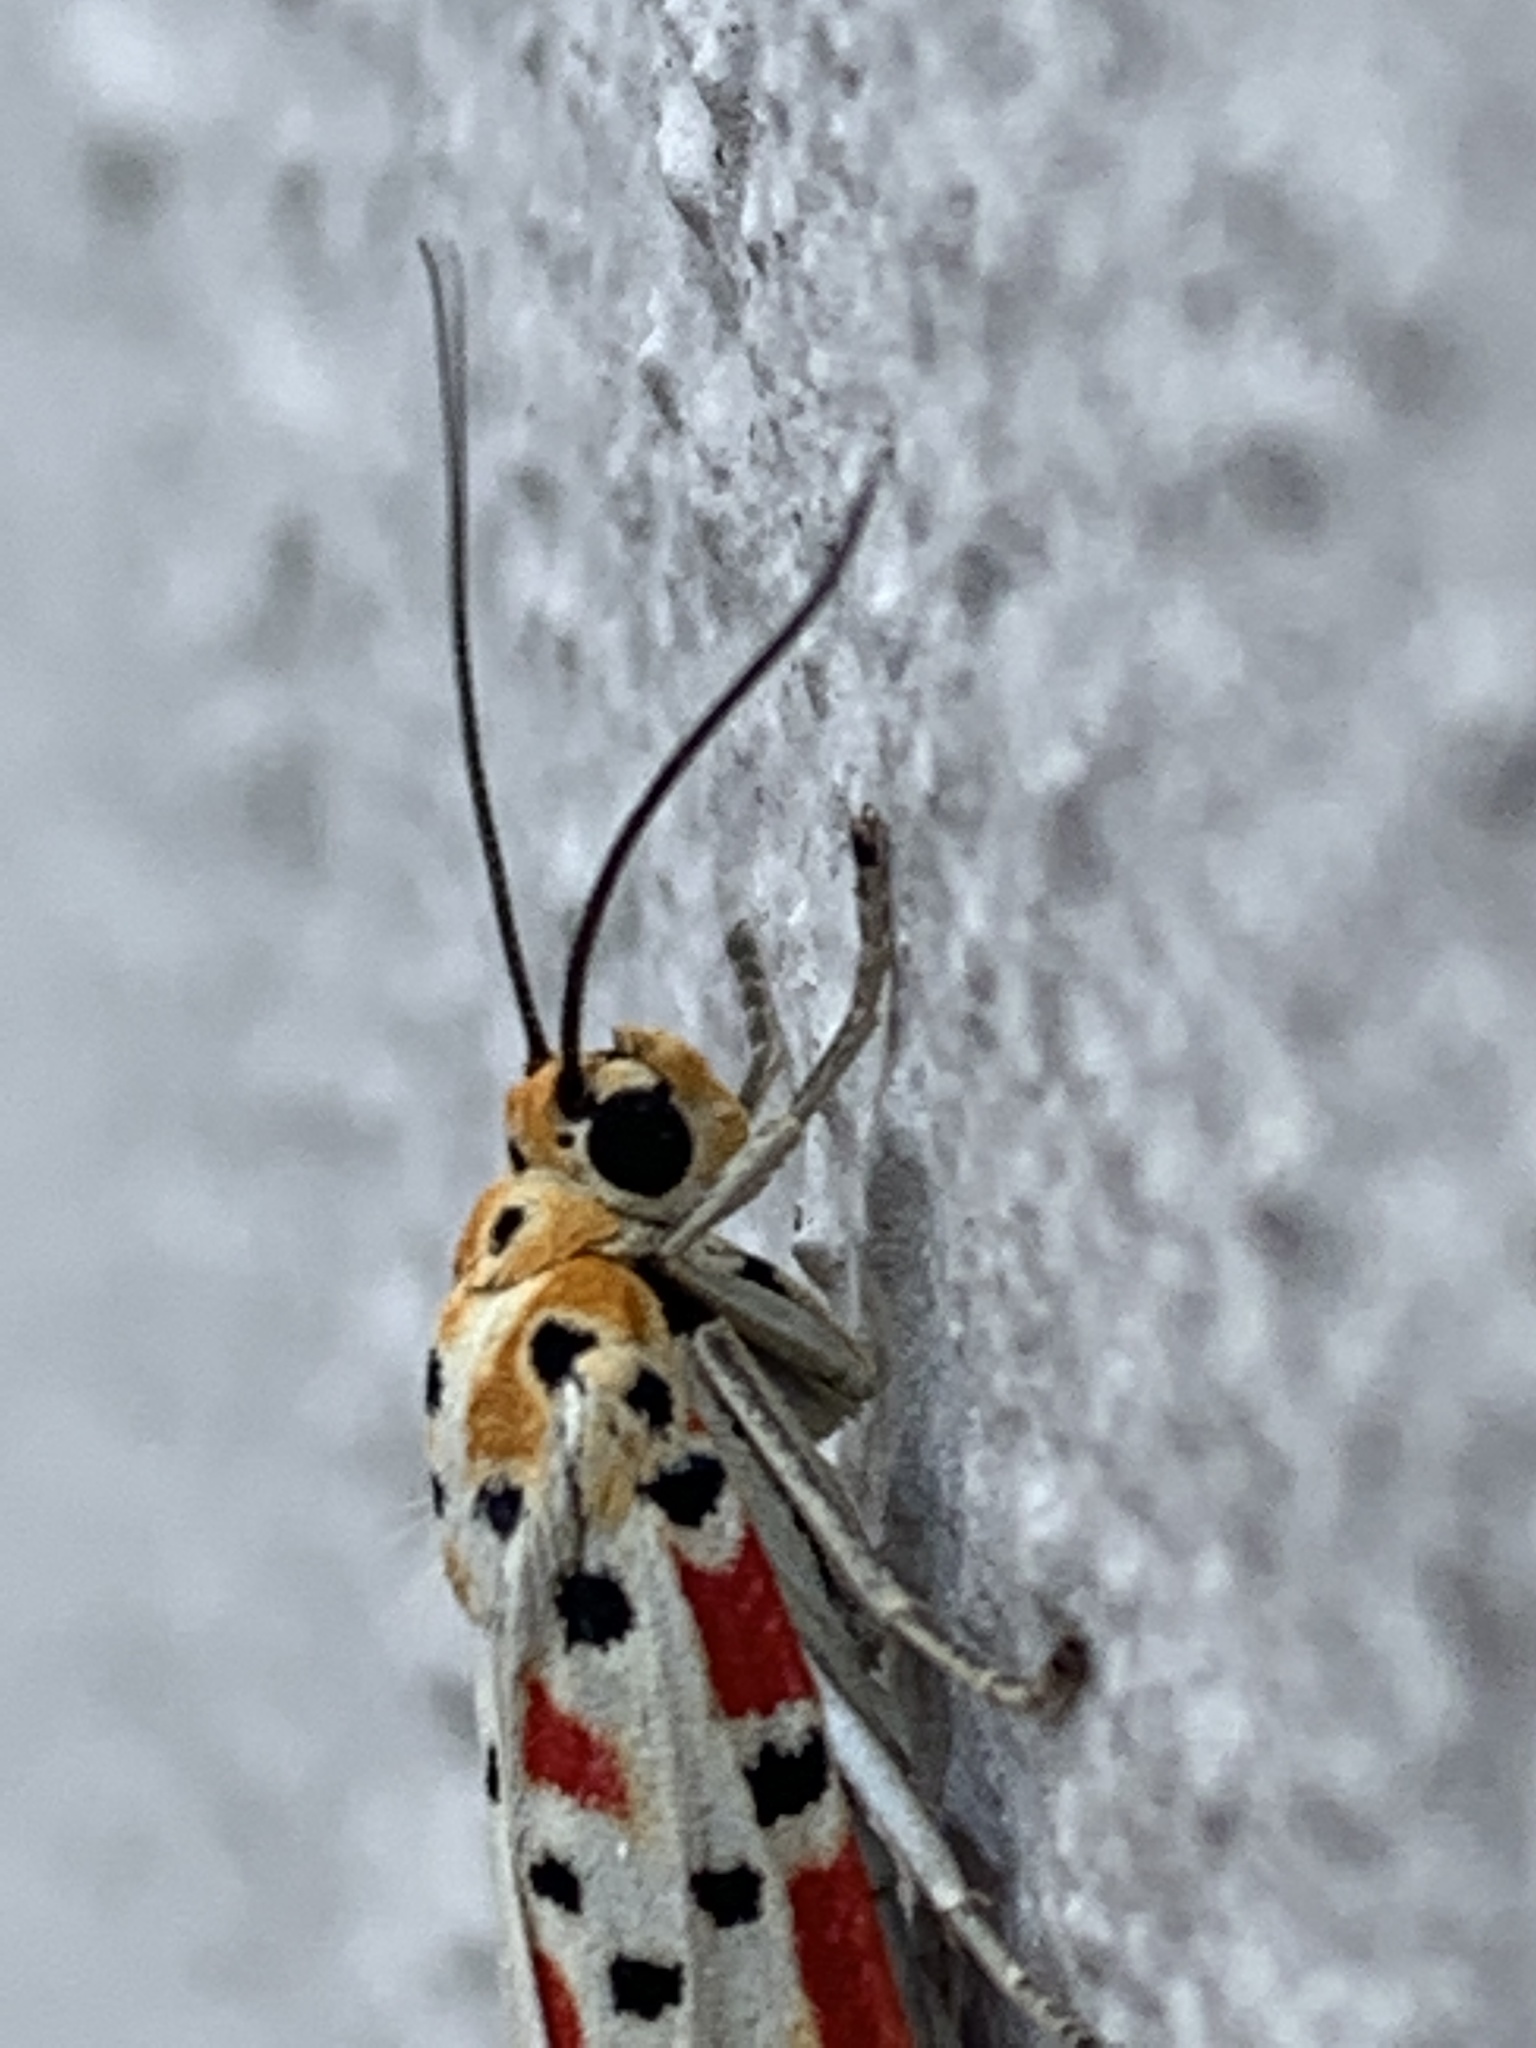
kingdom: Animalia
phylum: Arthropoda
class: Insecta
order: Lepidoptera
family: Erebidae
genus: Utetheisa
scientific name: Utetheisa pulchella
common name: Crimson speckled
